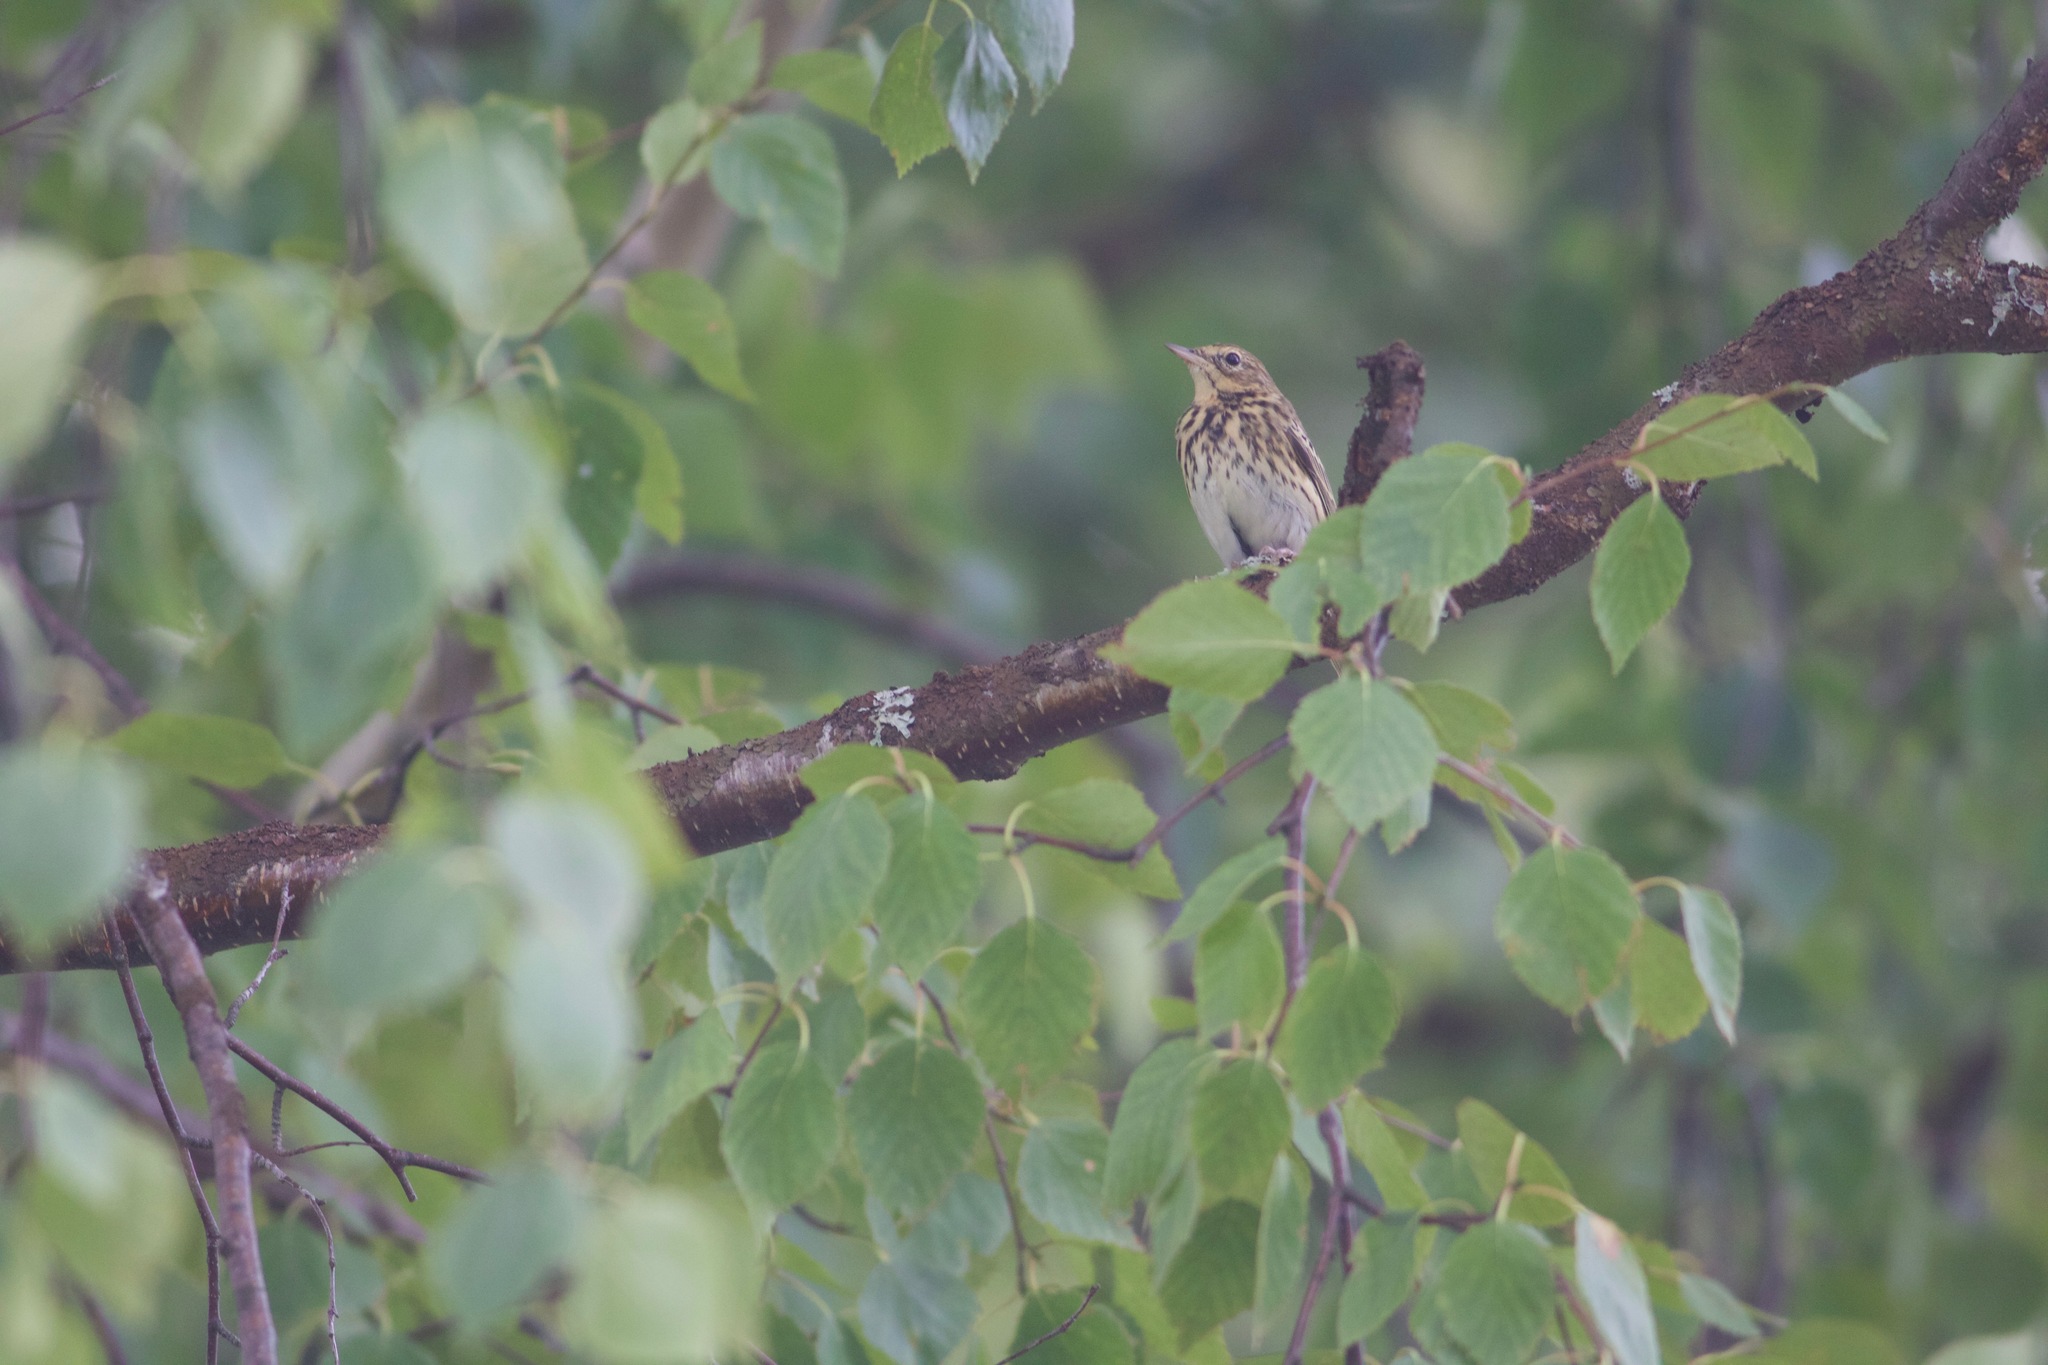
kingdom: Animalia
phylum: Chordata
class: Aves
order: Passeriformes
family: Motacillidae
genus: Anthus
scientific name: Anthus trivialis
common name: Tree pipit
